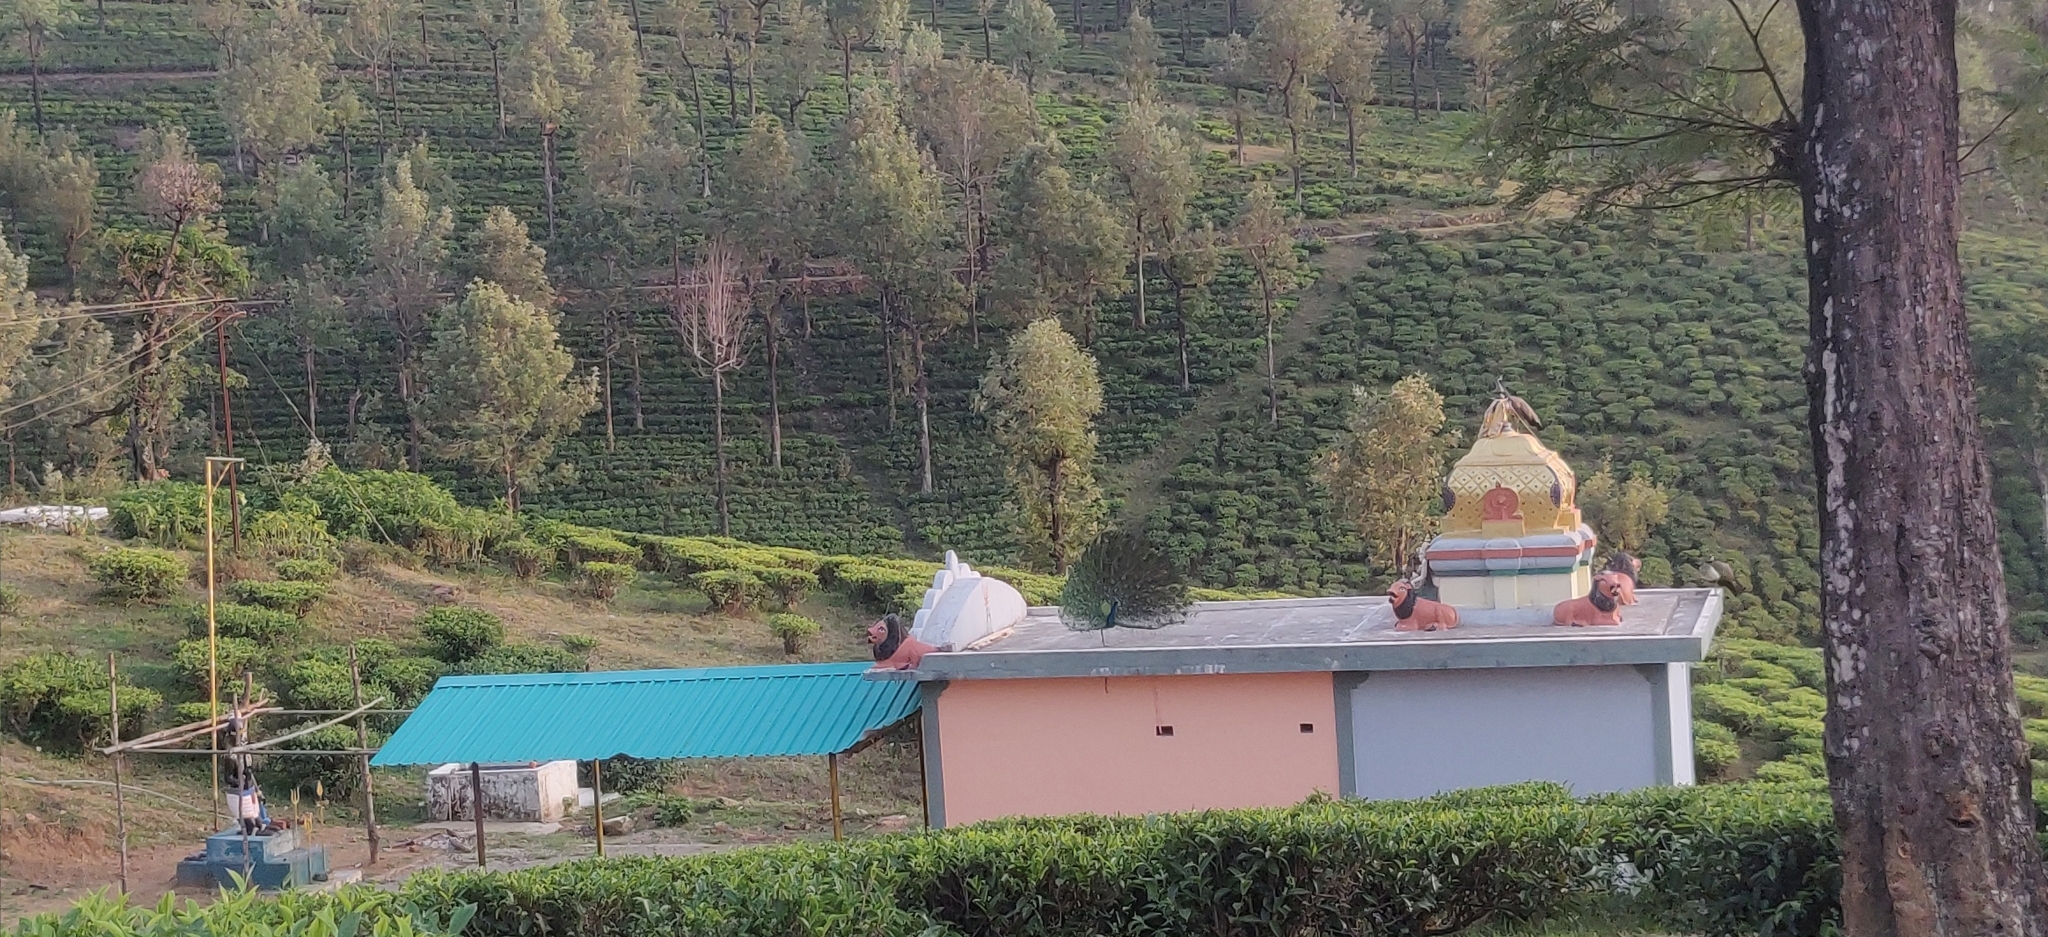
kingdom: Animalia
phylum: Chordata
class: Aves
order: Galliformes
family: Phasianidae
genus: Pavo
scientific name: Pavo cristatus
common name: Indian peafowl
